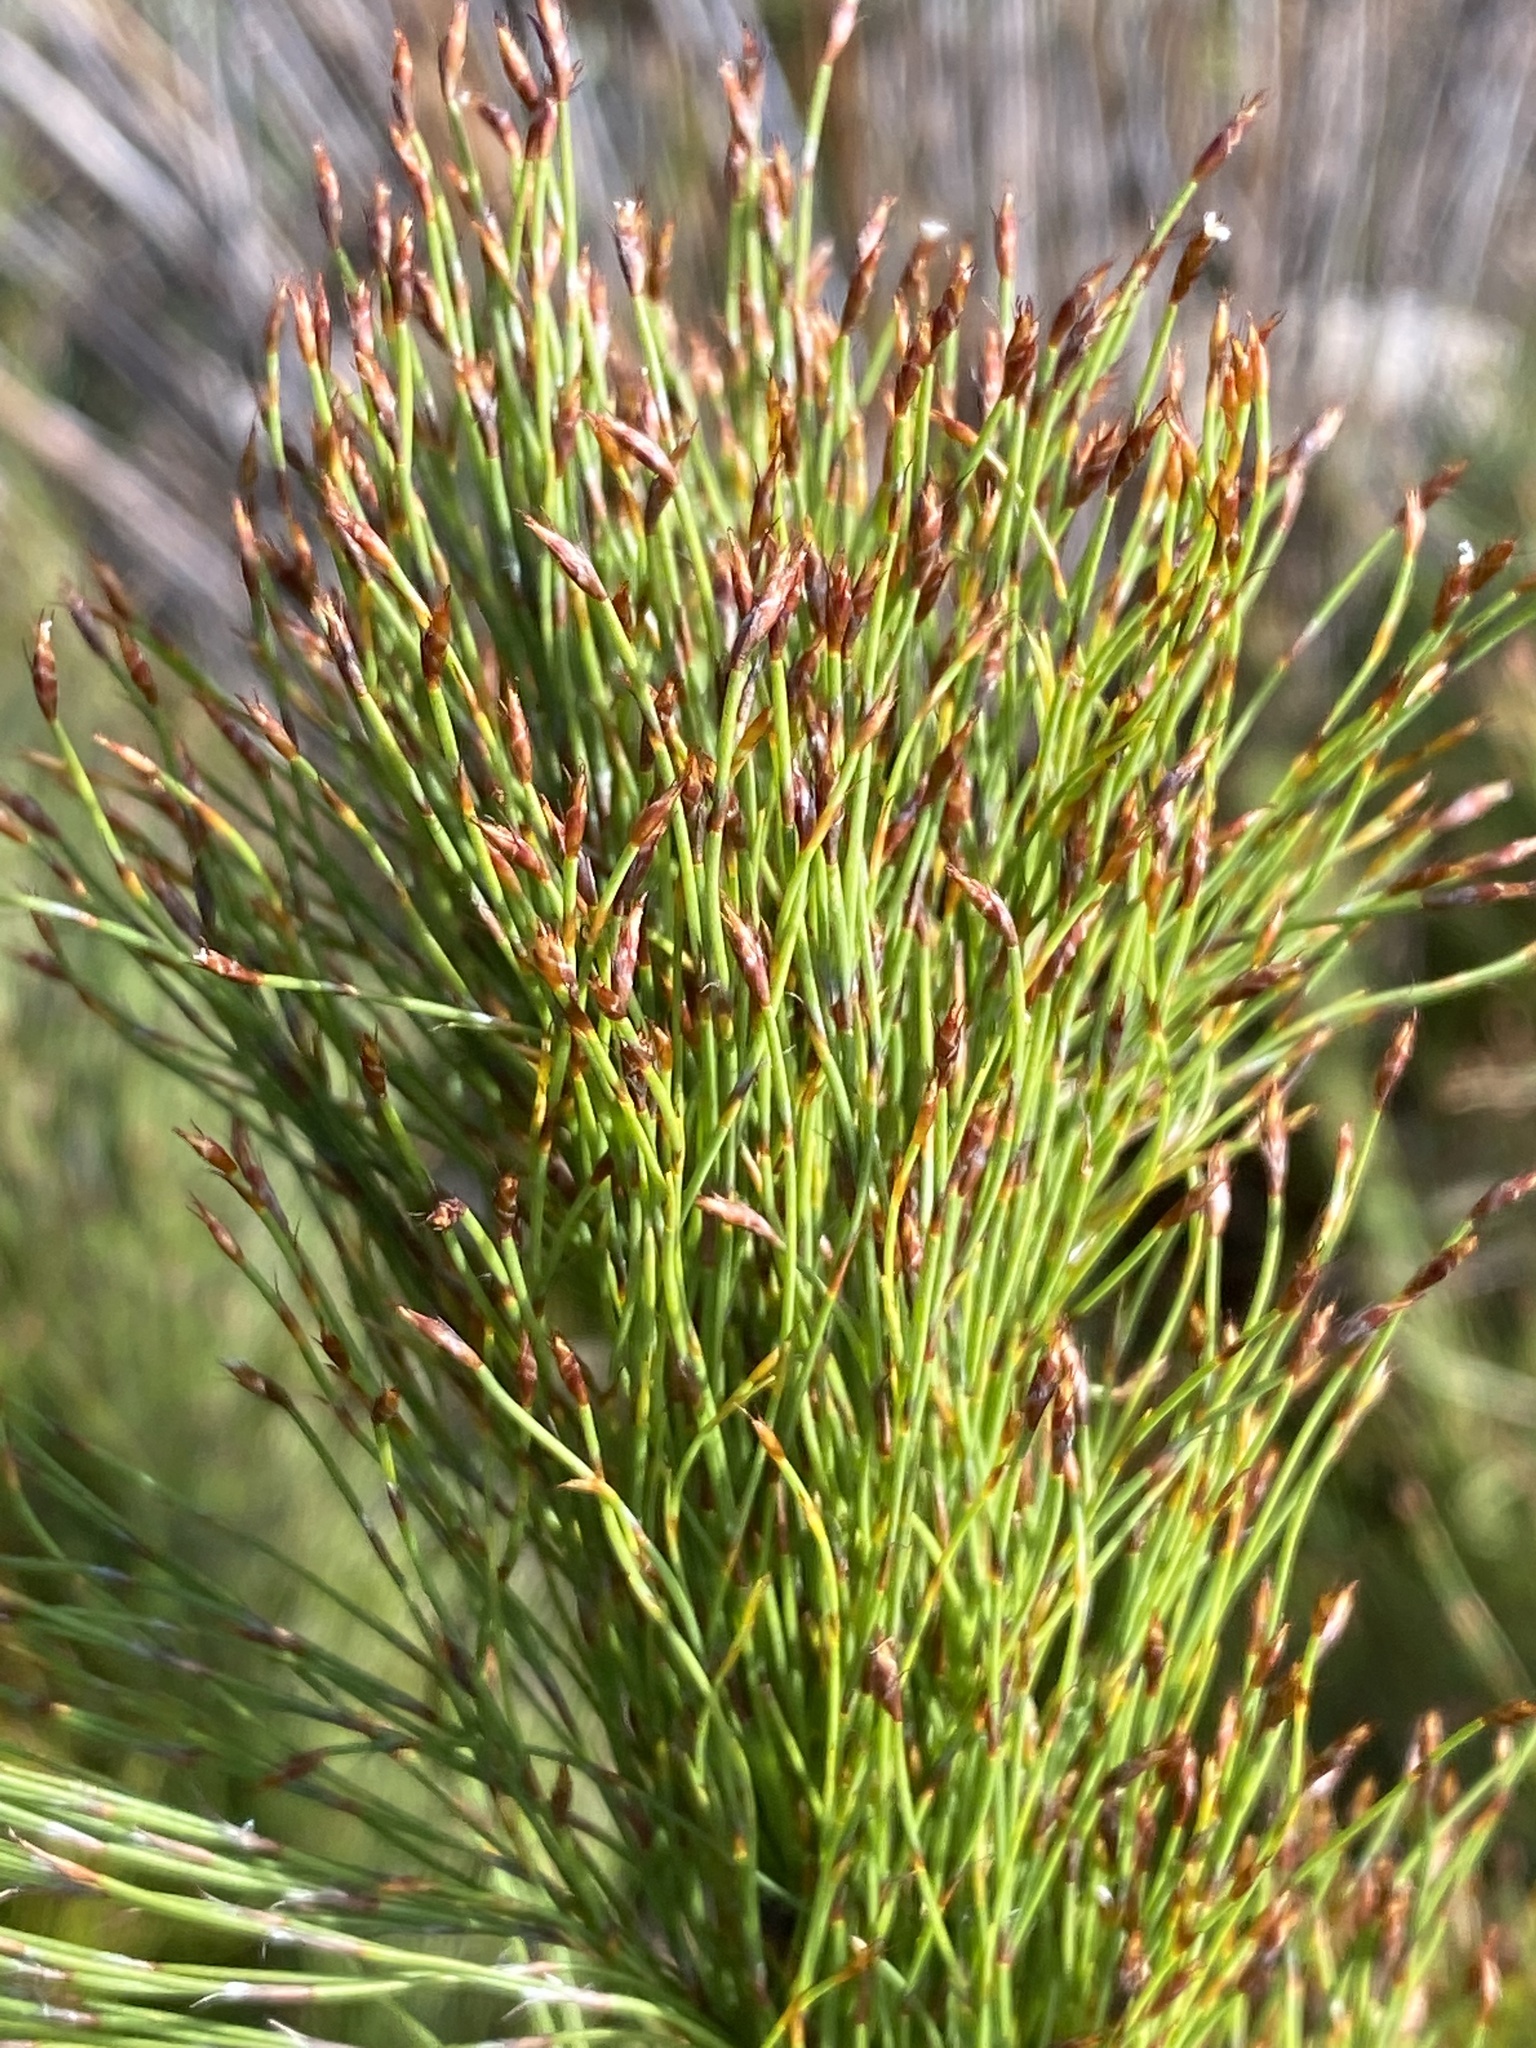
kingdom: Plantae
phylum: Tracheophyta
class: Liliopsida
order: Poales
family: Restionaceae
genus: Restio
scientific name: Restio leptoclados
